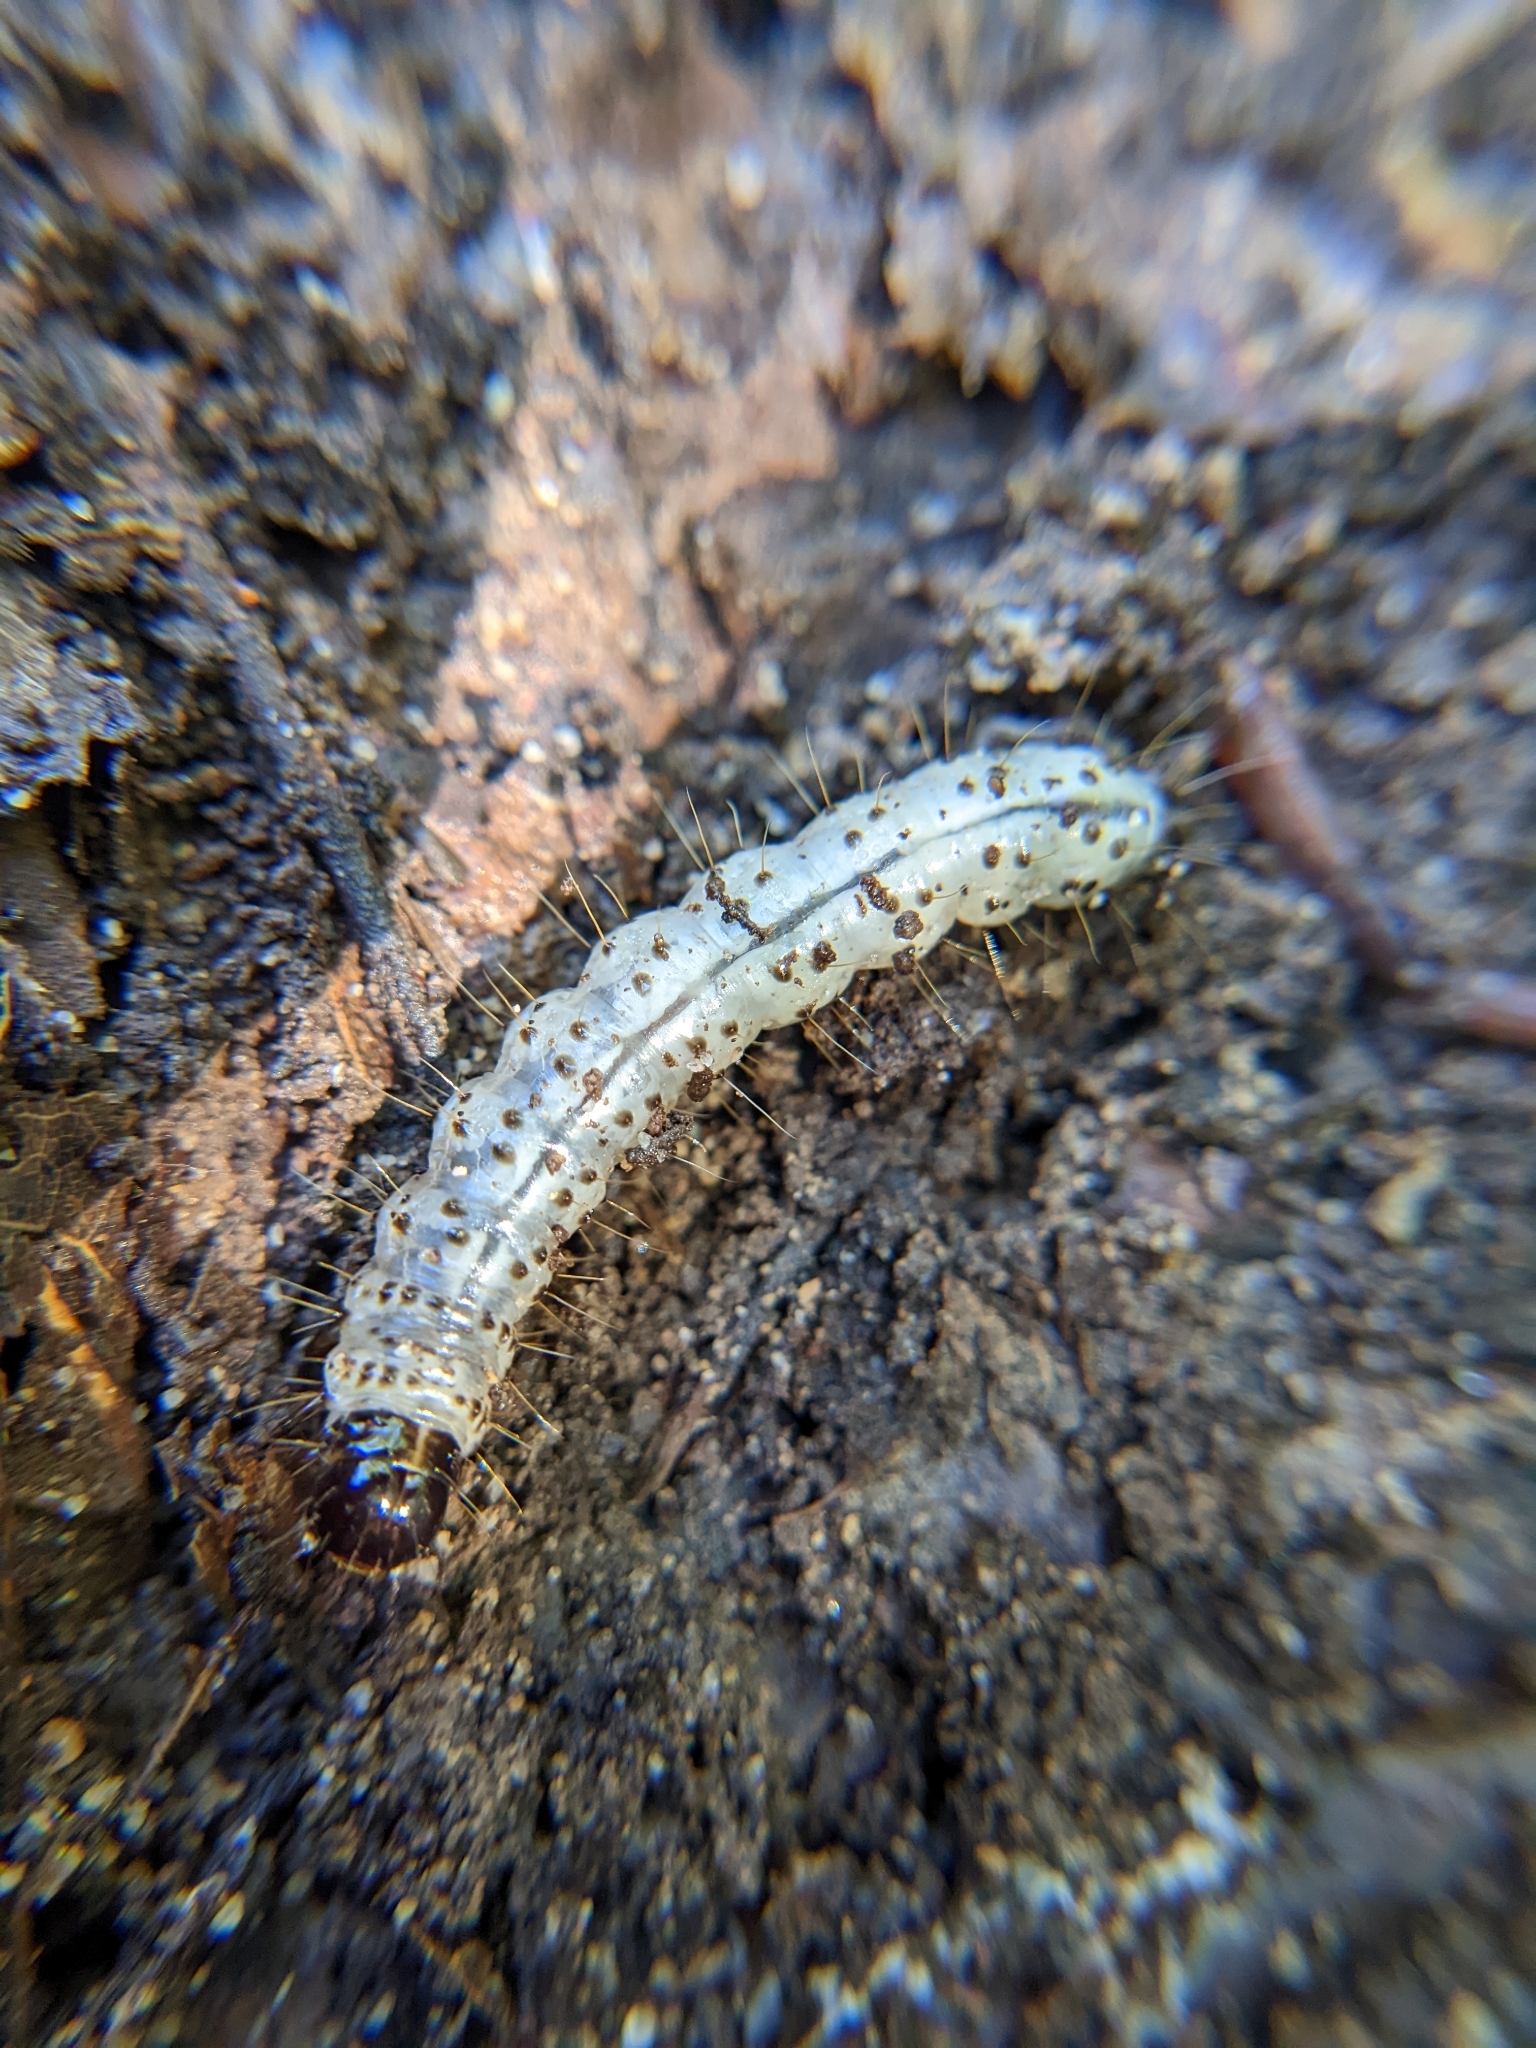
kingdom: Animalia
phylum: Arthropoda
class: Insecta
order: Lepidoptera
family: Erebidae
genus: Scolecocampa
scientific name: Scolecocampa liburna
